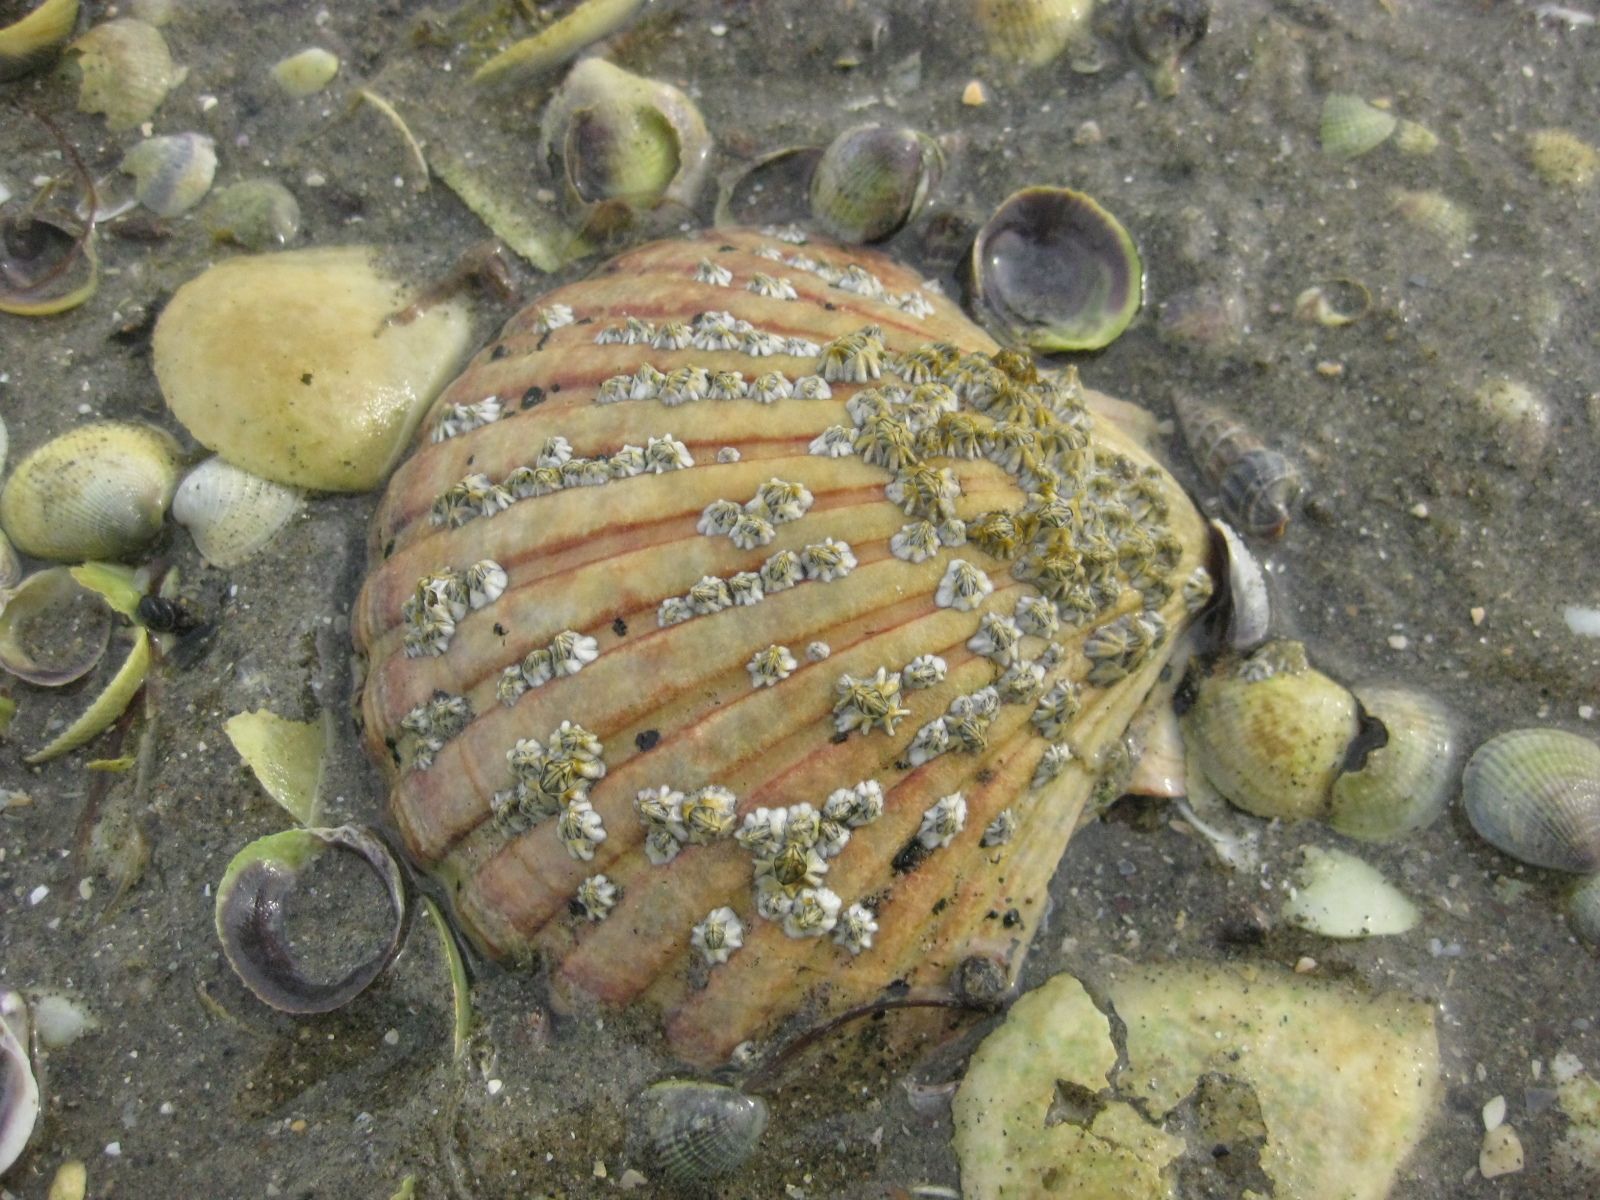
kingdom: Animalia
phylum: Mollusca
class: Bivalvia
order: Pectinida
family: Pectinidae
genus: Pecten
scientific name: Pecten novaezelandiae
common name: New zealand scallop
